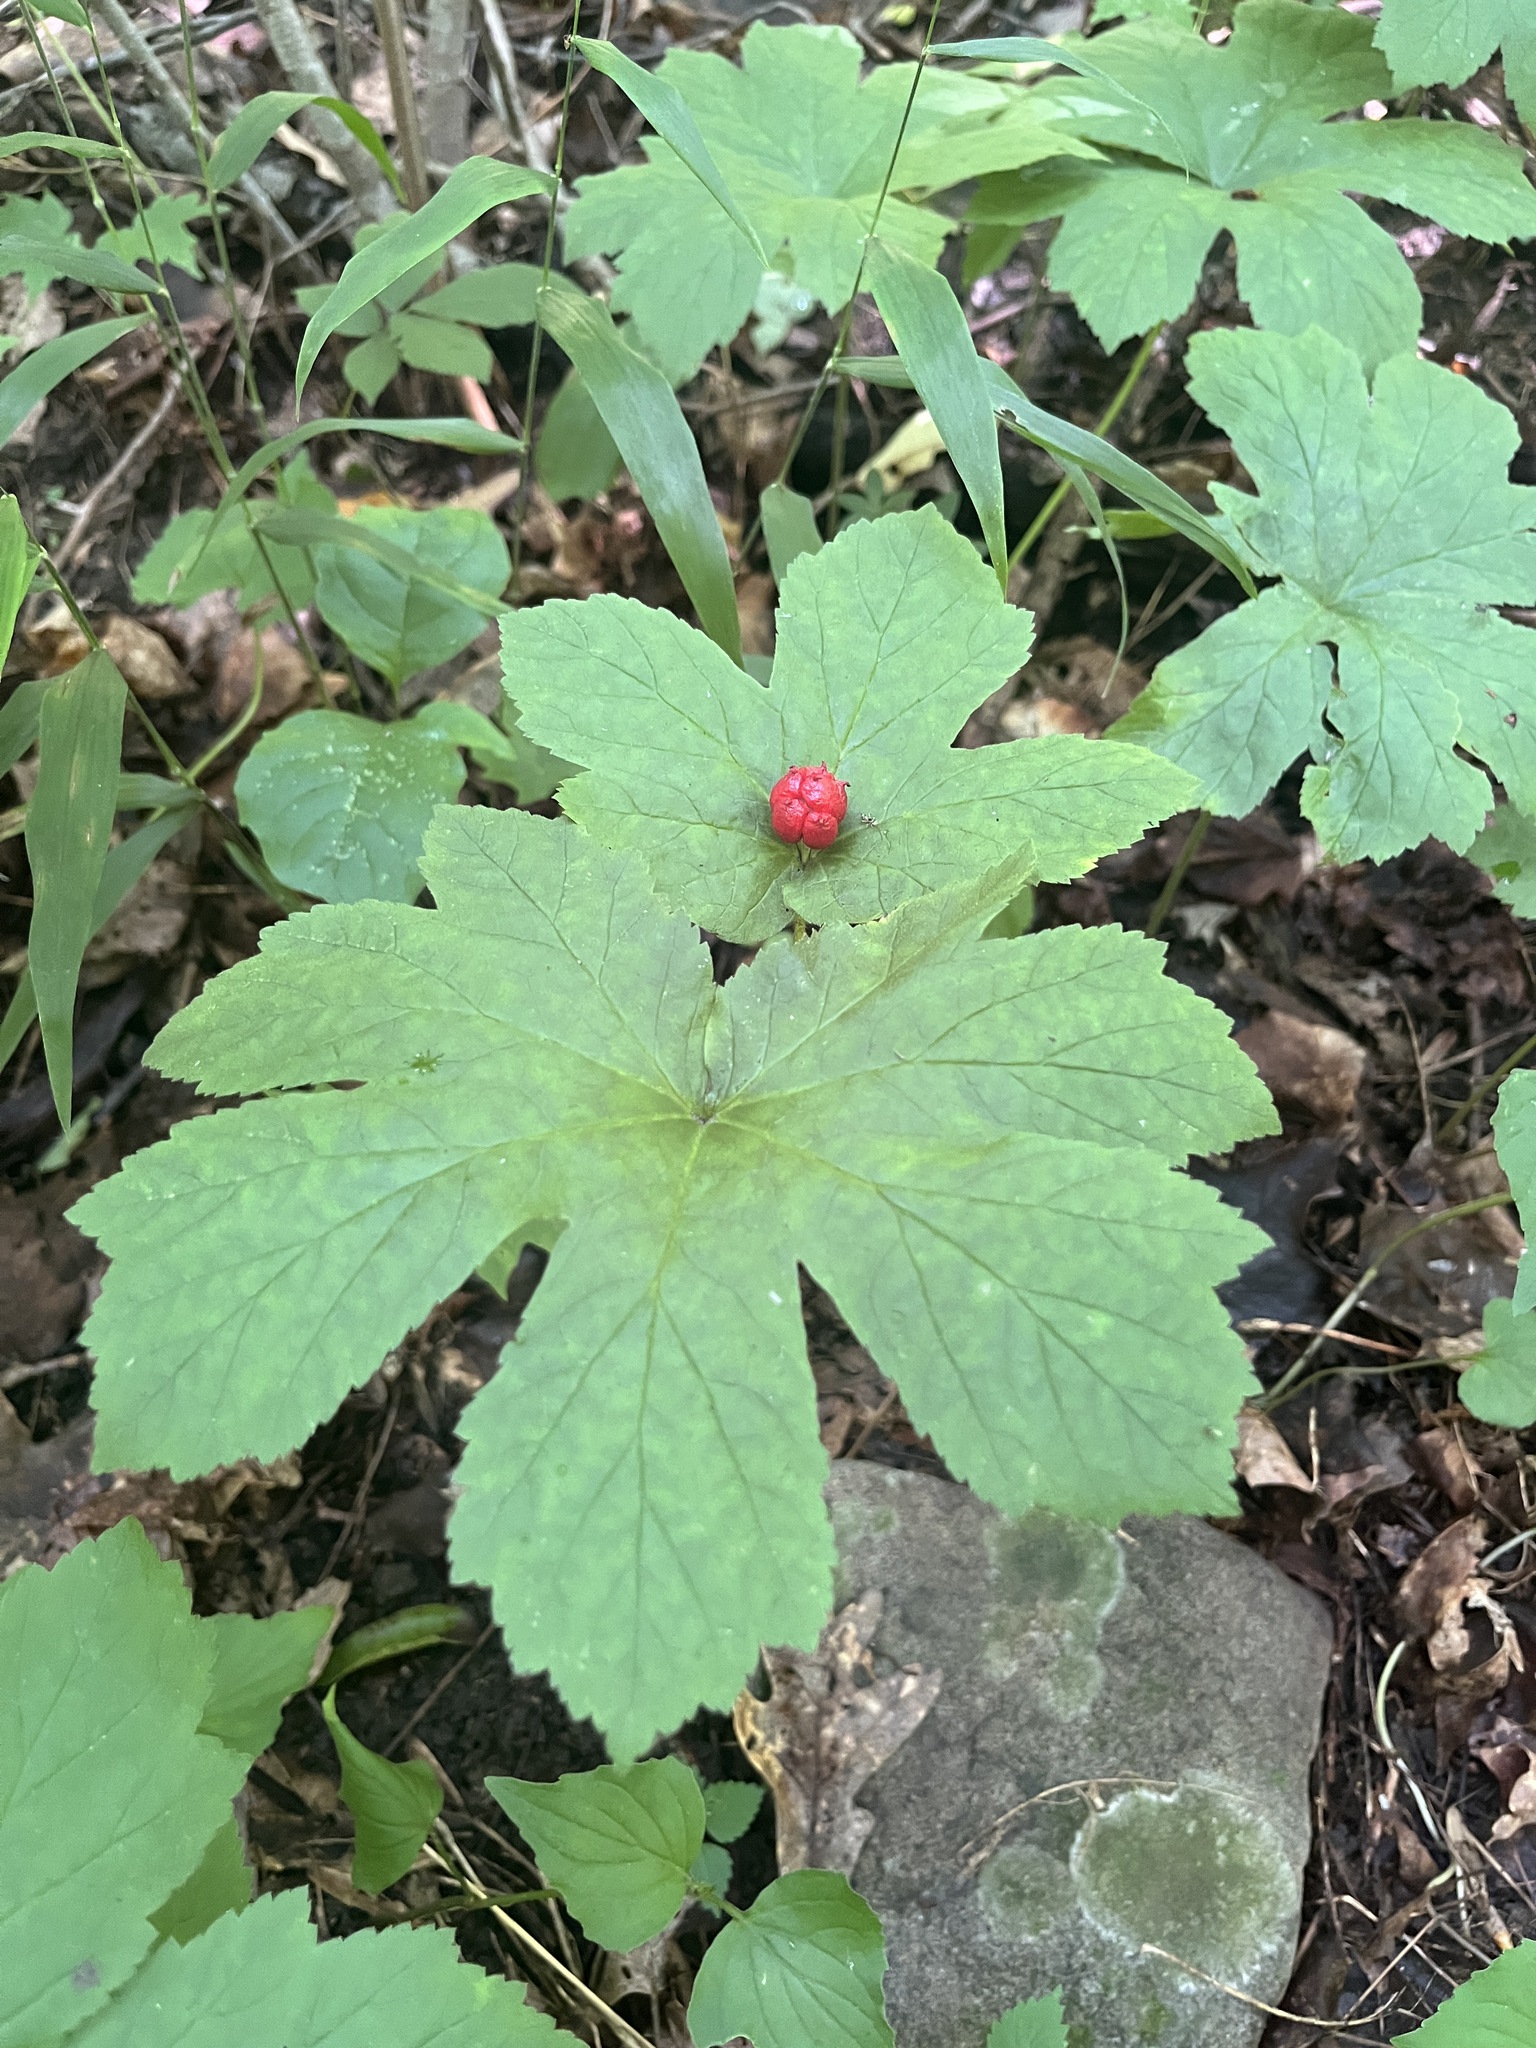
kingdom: Plantae
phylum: Tracheophyta
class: Magnoliopsida
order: Ranunculales
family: Ranunculaceae
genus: Hydrastis
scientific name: Hydrastis canadensis
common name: Goldenseal
